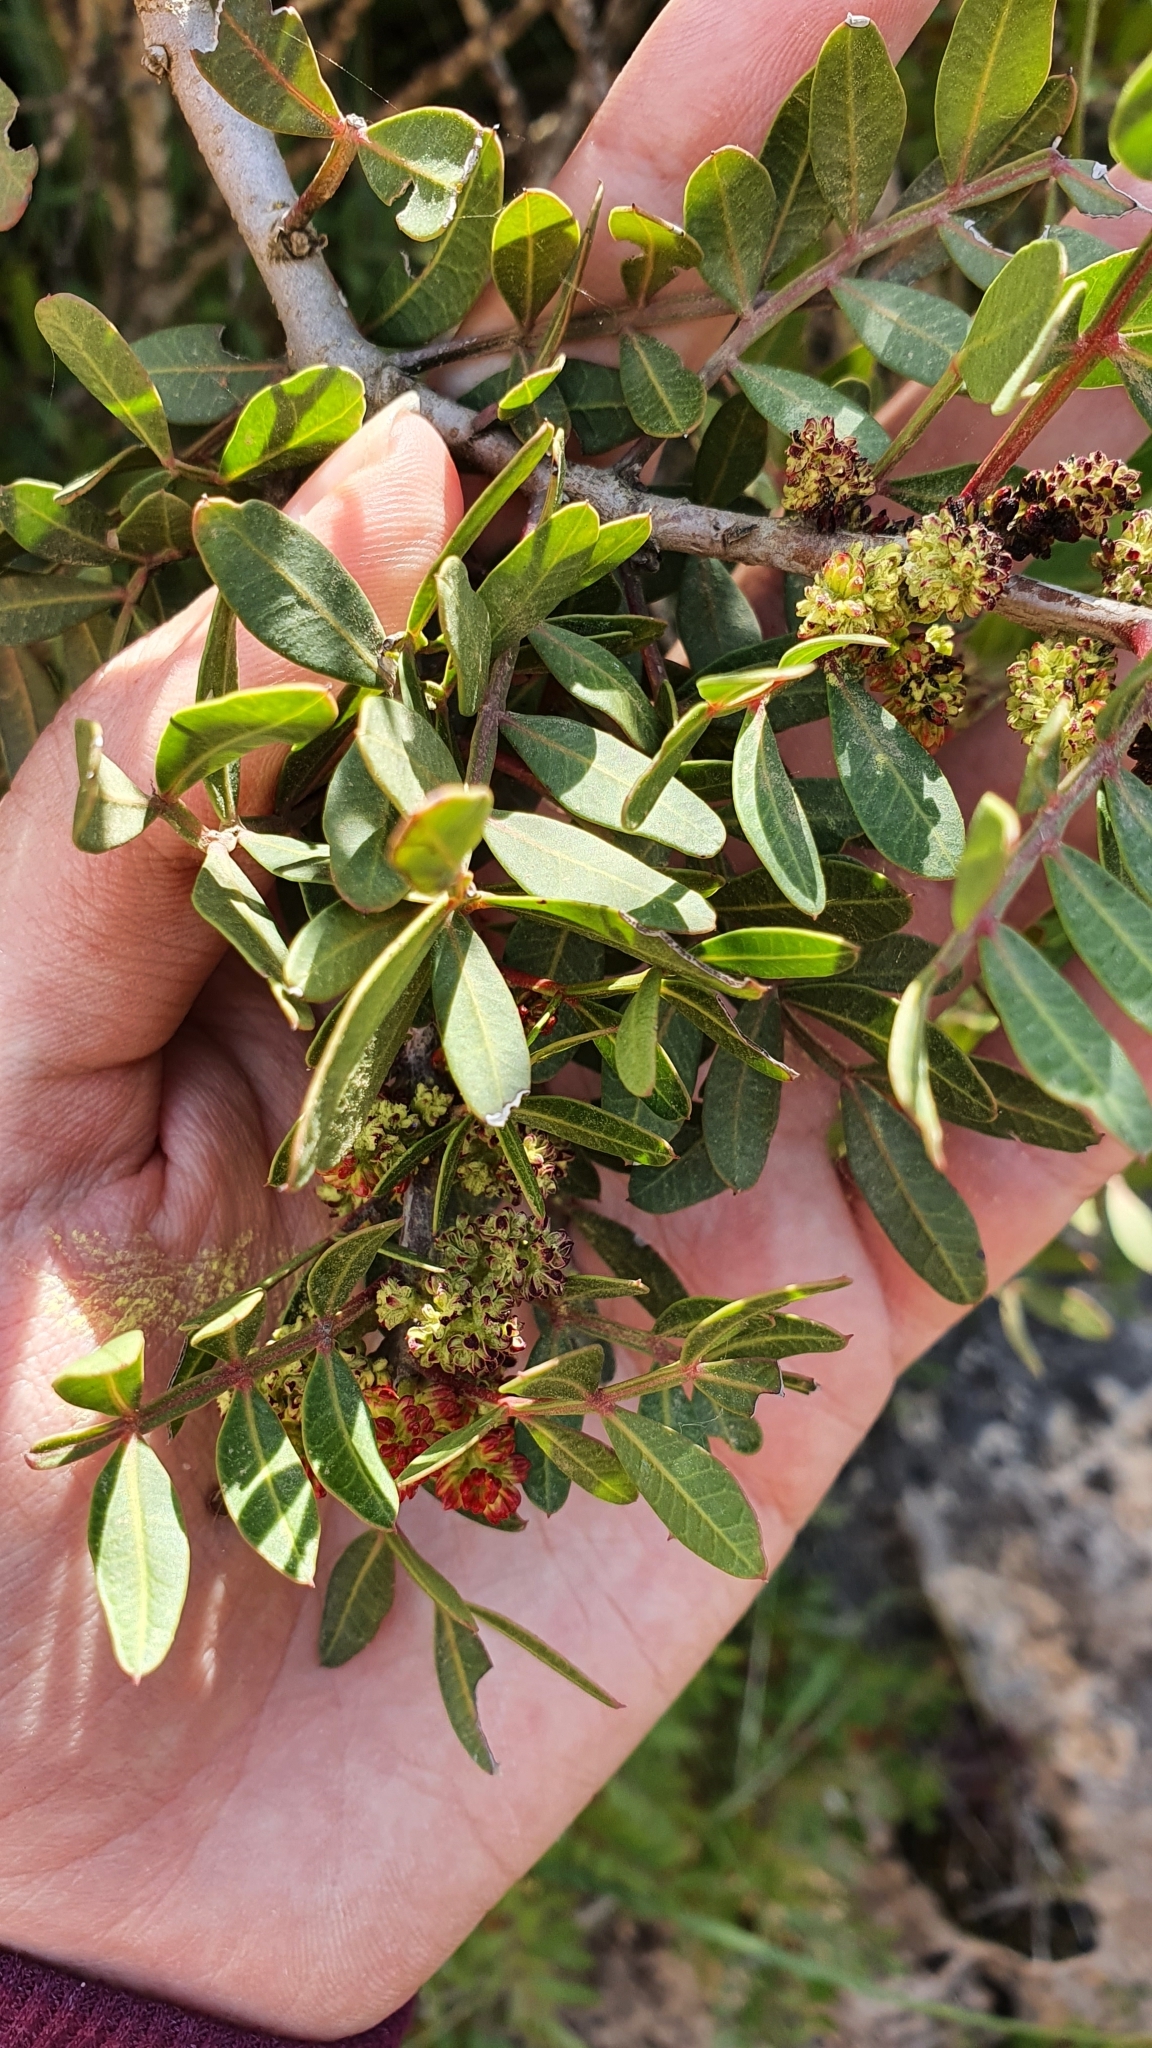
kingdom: Plantae
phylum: Tracheophyta
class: Magnoliopsida
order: Sapindales
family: Anacardiaceae
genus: Pistacia
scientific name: Pistacia lentiscus
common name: Lentisk
